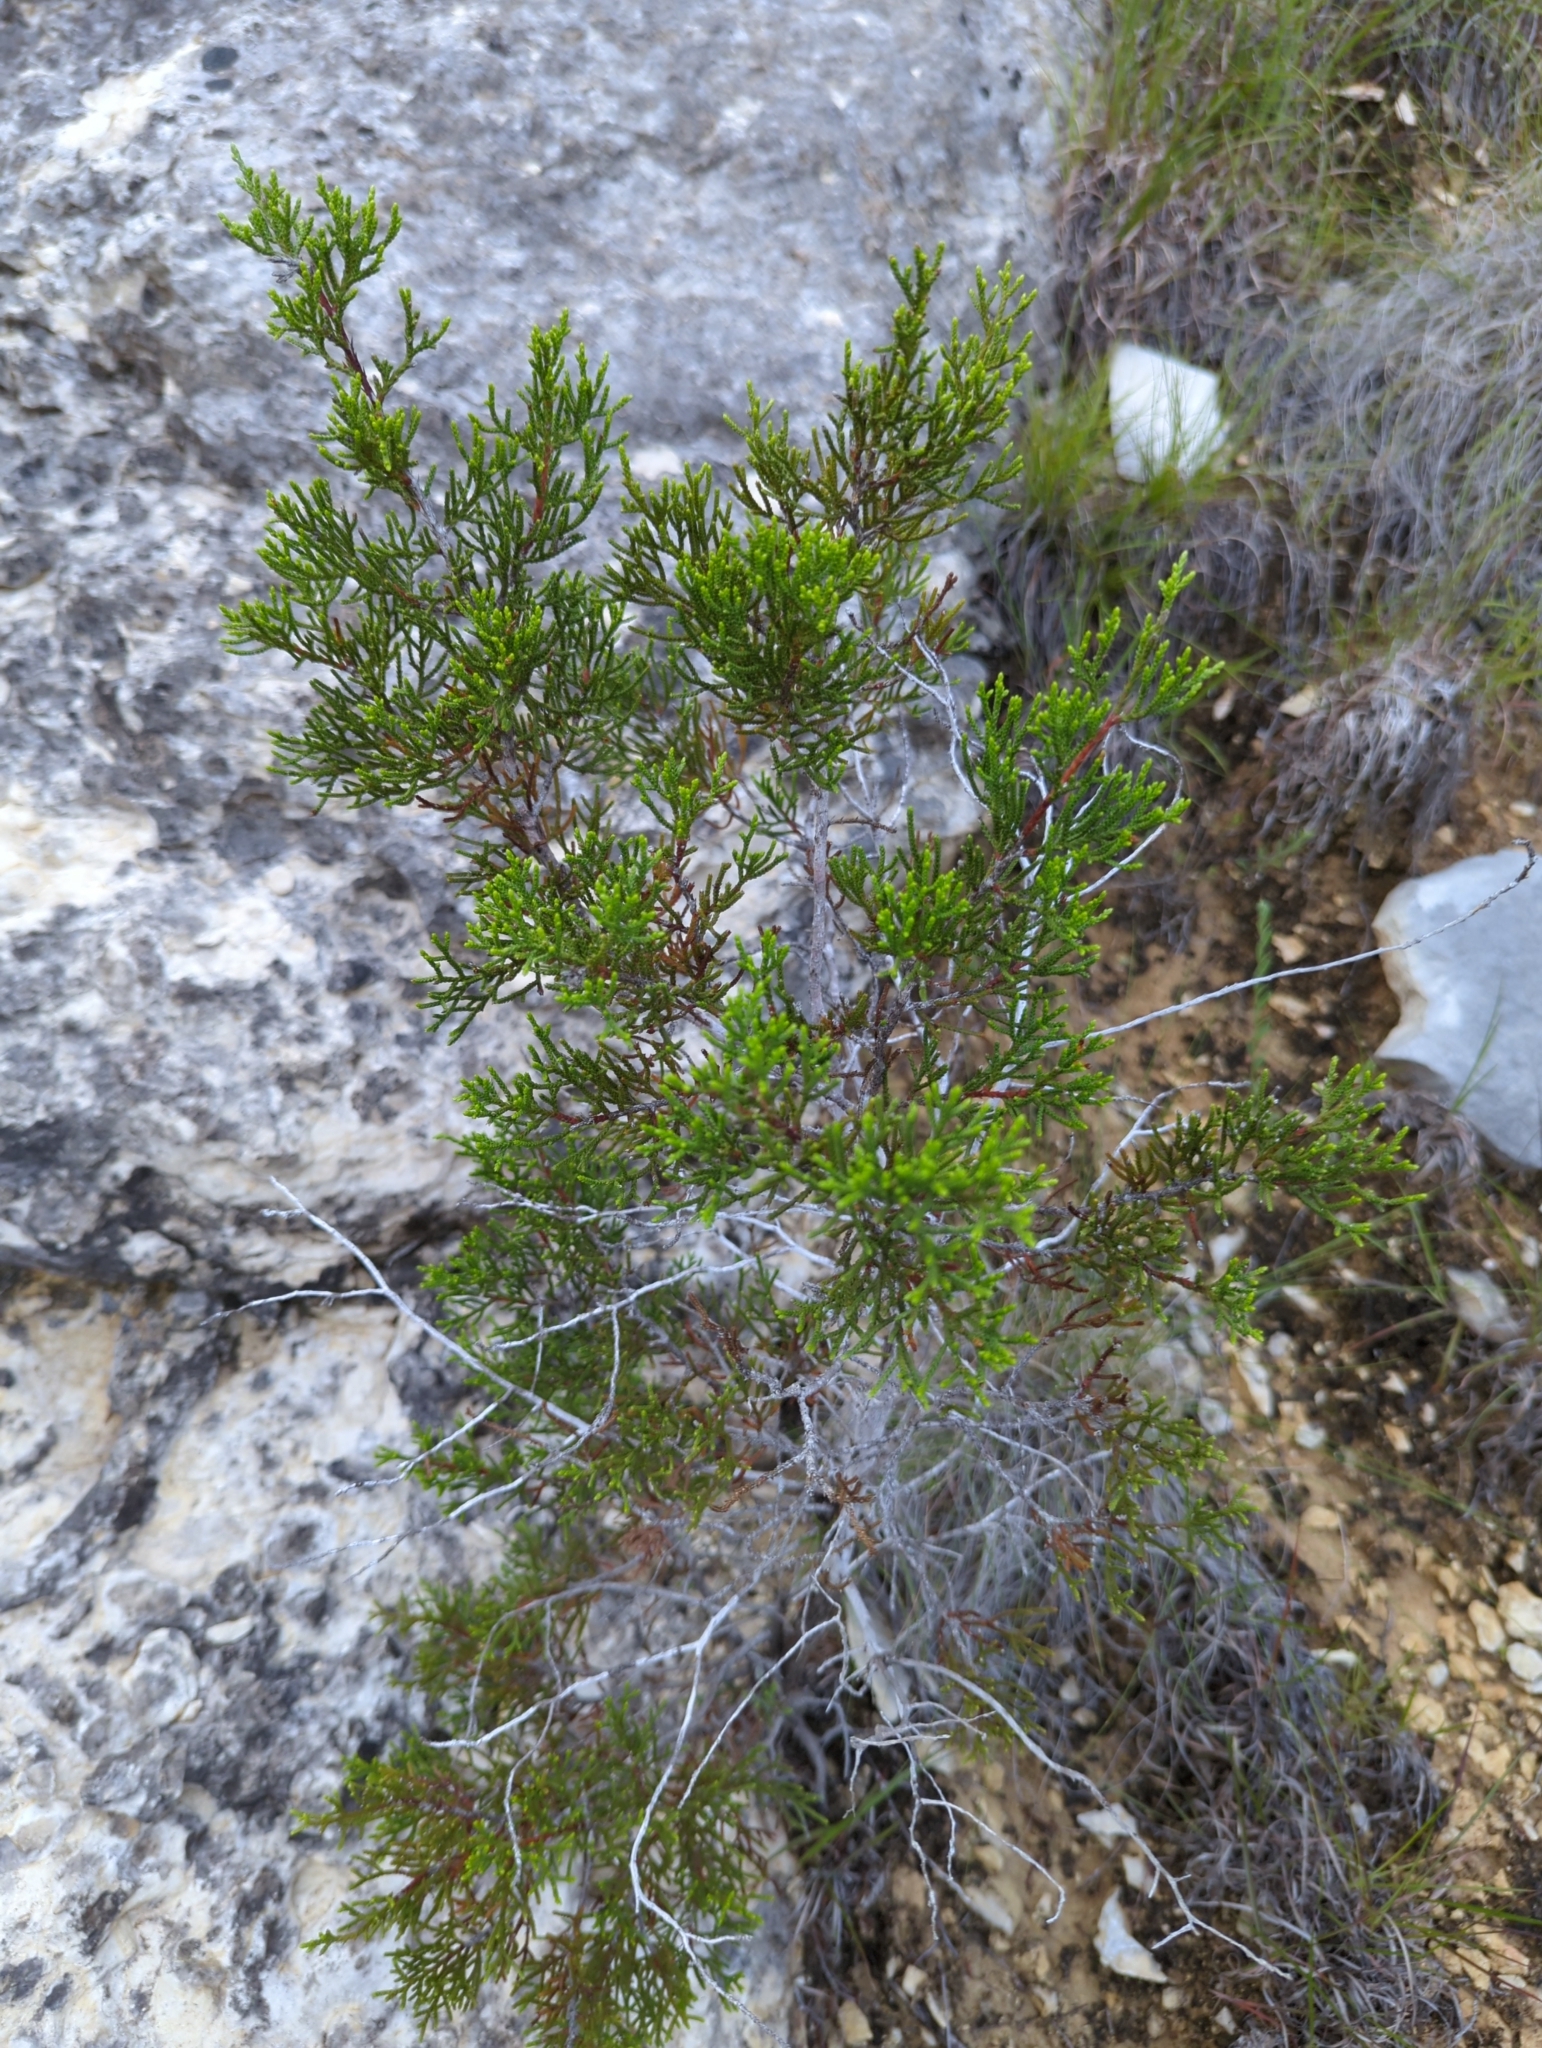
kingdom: Plantae
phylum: Tracheophyta
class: Pinopsida
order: Pinales
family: Cupressaceae
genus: Juniperus
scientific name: Juniperus ashei
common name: Mexican juniper
